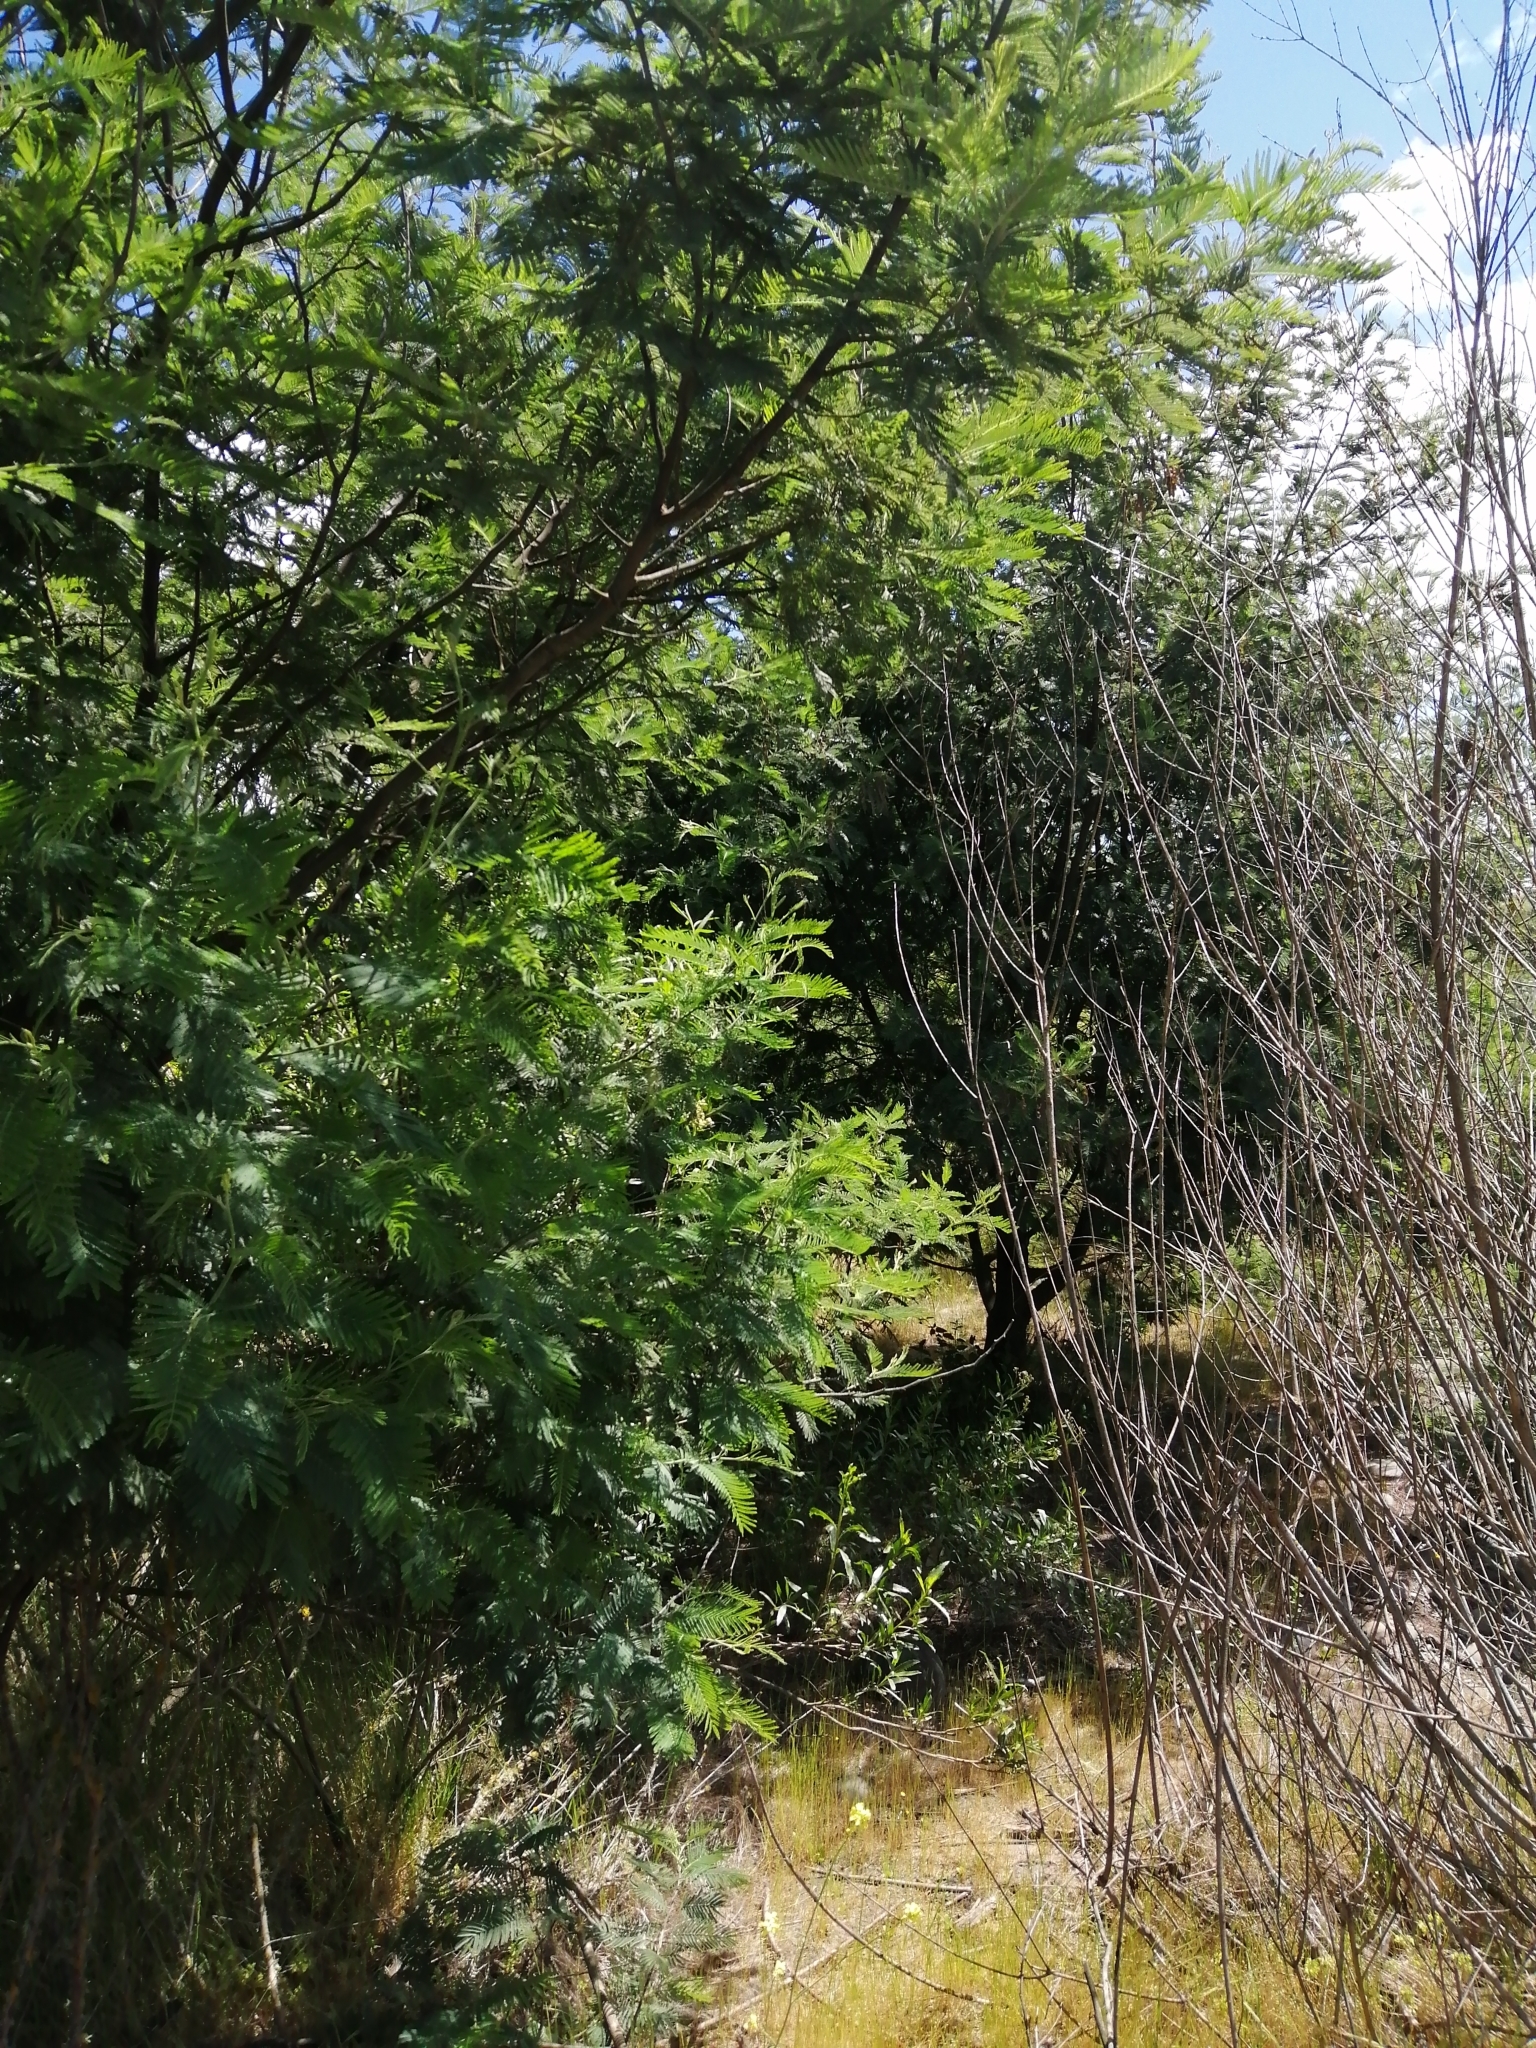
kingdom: Plantae
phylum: Tracheophyta
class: Magnoliopsida
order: Fabales
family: Fabaceae
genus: Acacia
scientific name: Acacia dealbata
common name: Silver wattle
